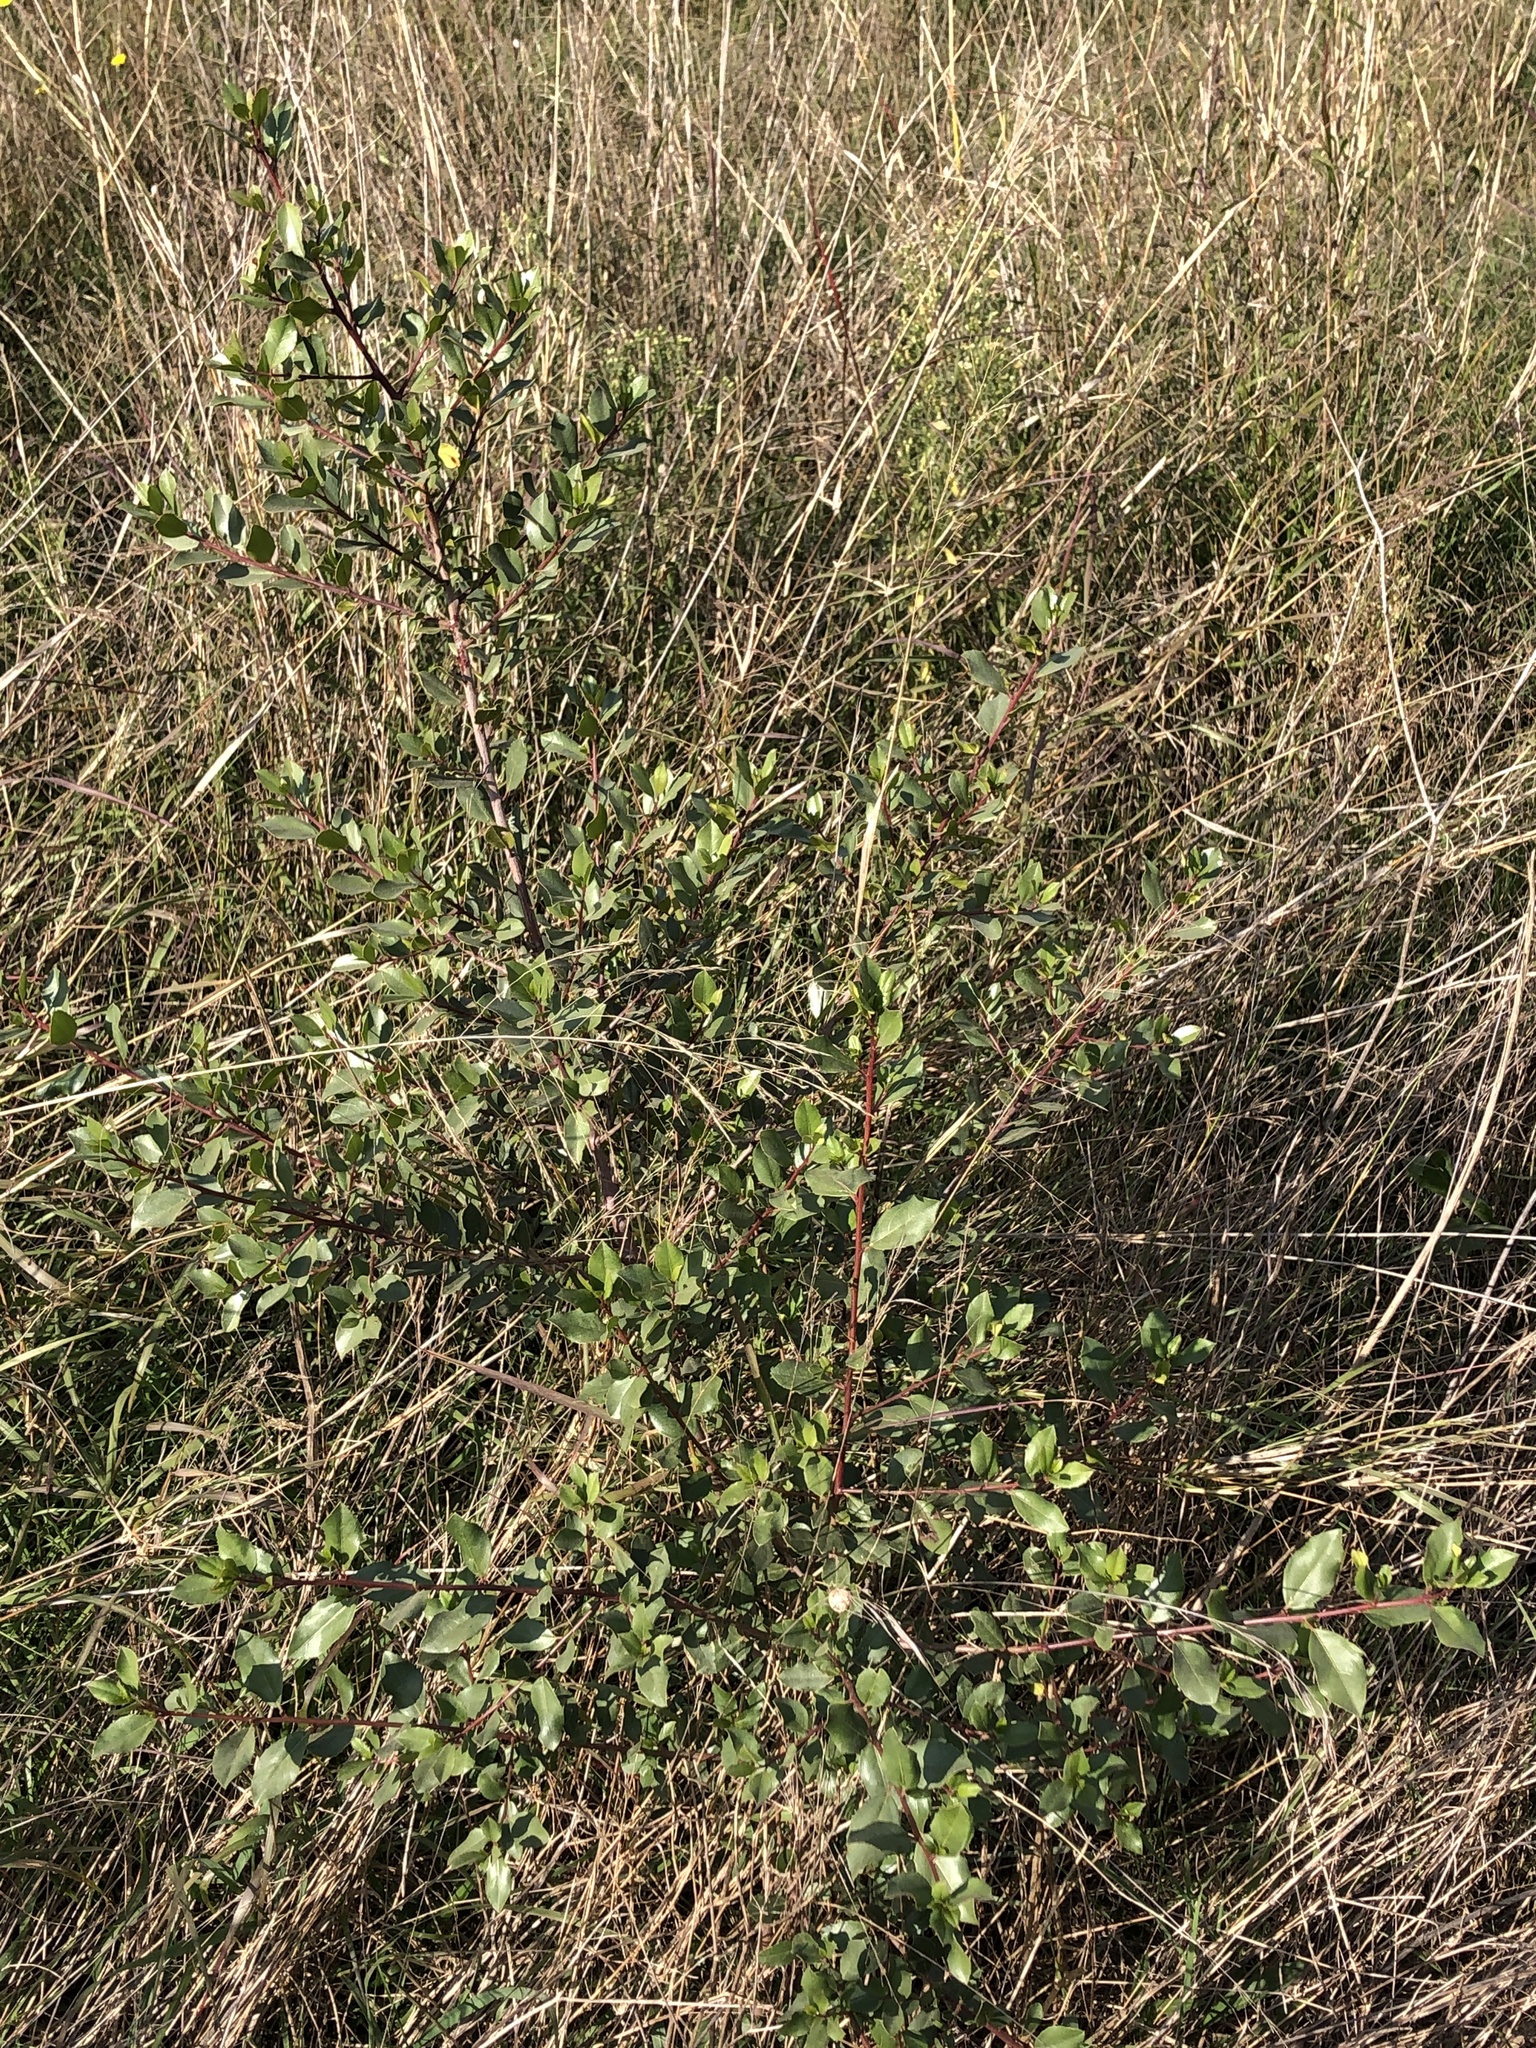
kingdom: Plantae
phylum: Tracheophyta
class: Magnoliopsida
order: Rosales
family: Rhamnaceae
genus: Rhamnus
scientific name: Rhamnus alaternus
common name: Mediterranean buckthorn
